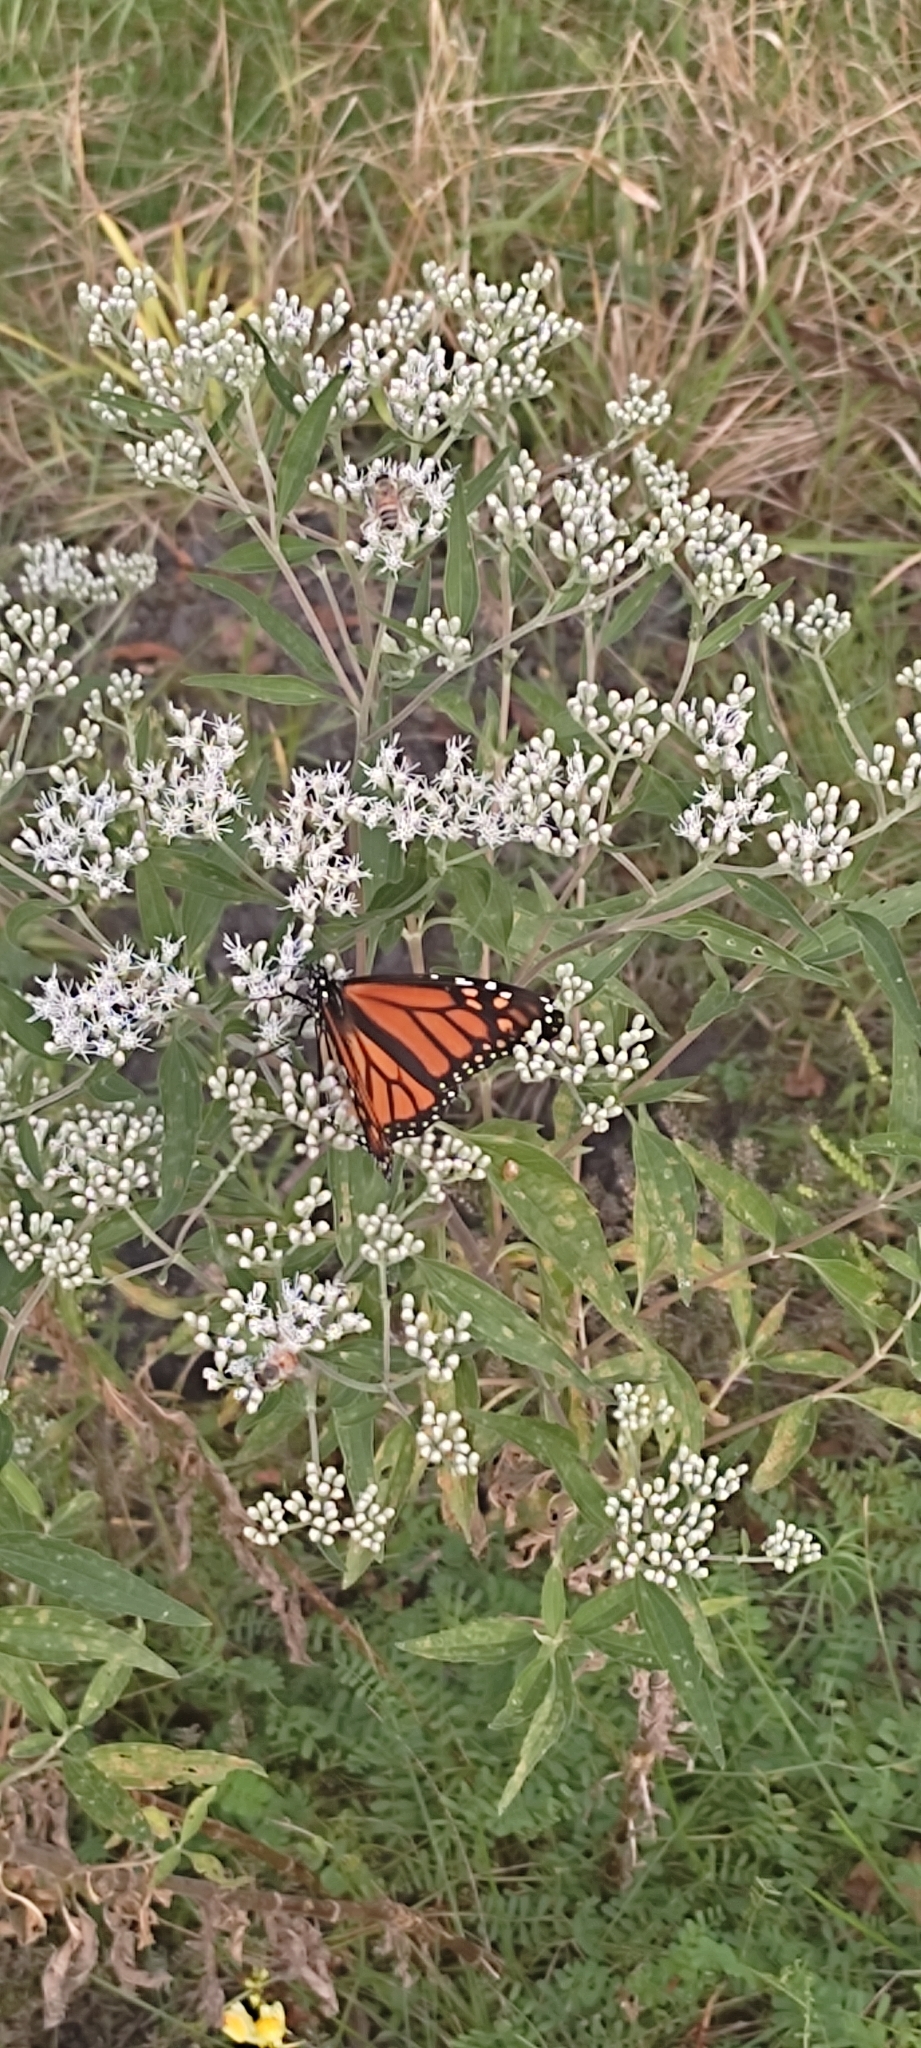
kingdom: Animalia
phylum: Arthropoda
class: Insecta
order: Lepidoptera
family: Nymphalidae
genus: Danaus
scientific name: Danaus plexippus
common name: Monarch
